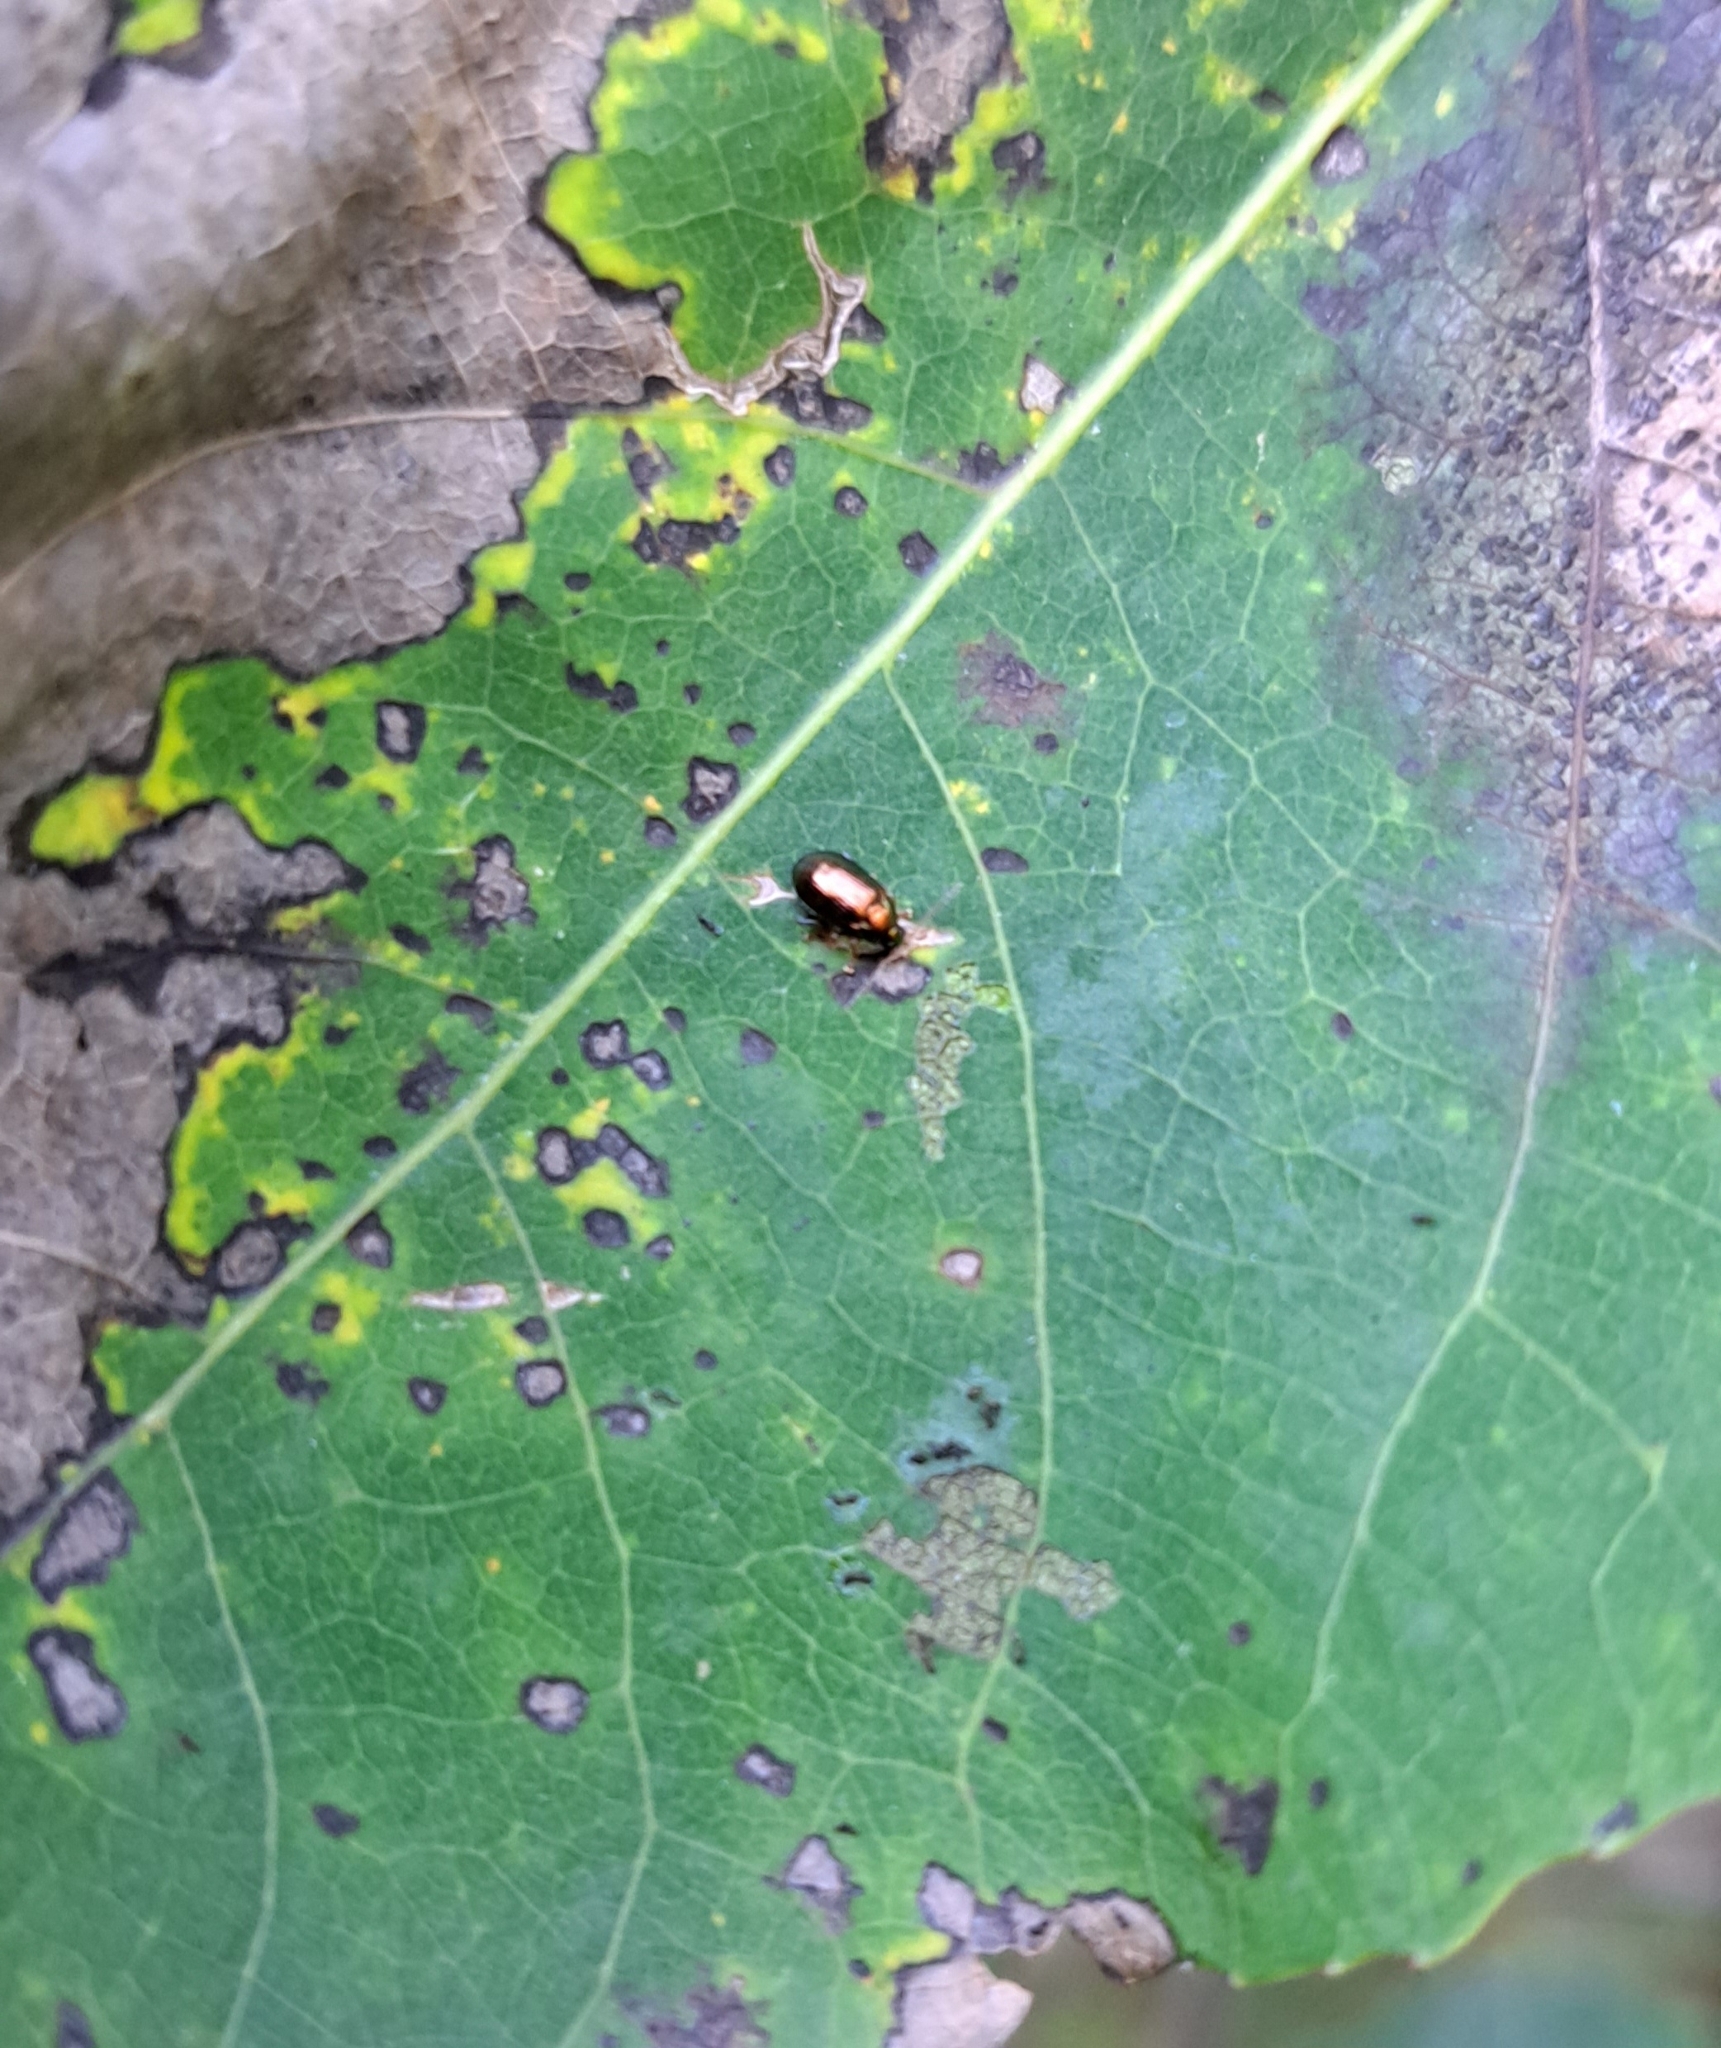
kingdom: Animalia
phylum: Arthropoda
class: Insecta
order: Coleoptera
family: Chrysomelidae
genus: Crepidodera
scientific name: Crepidodera aurea
